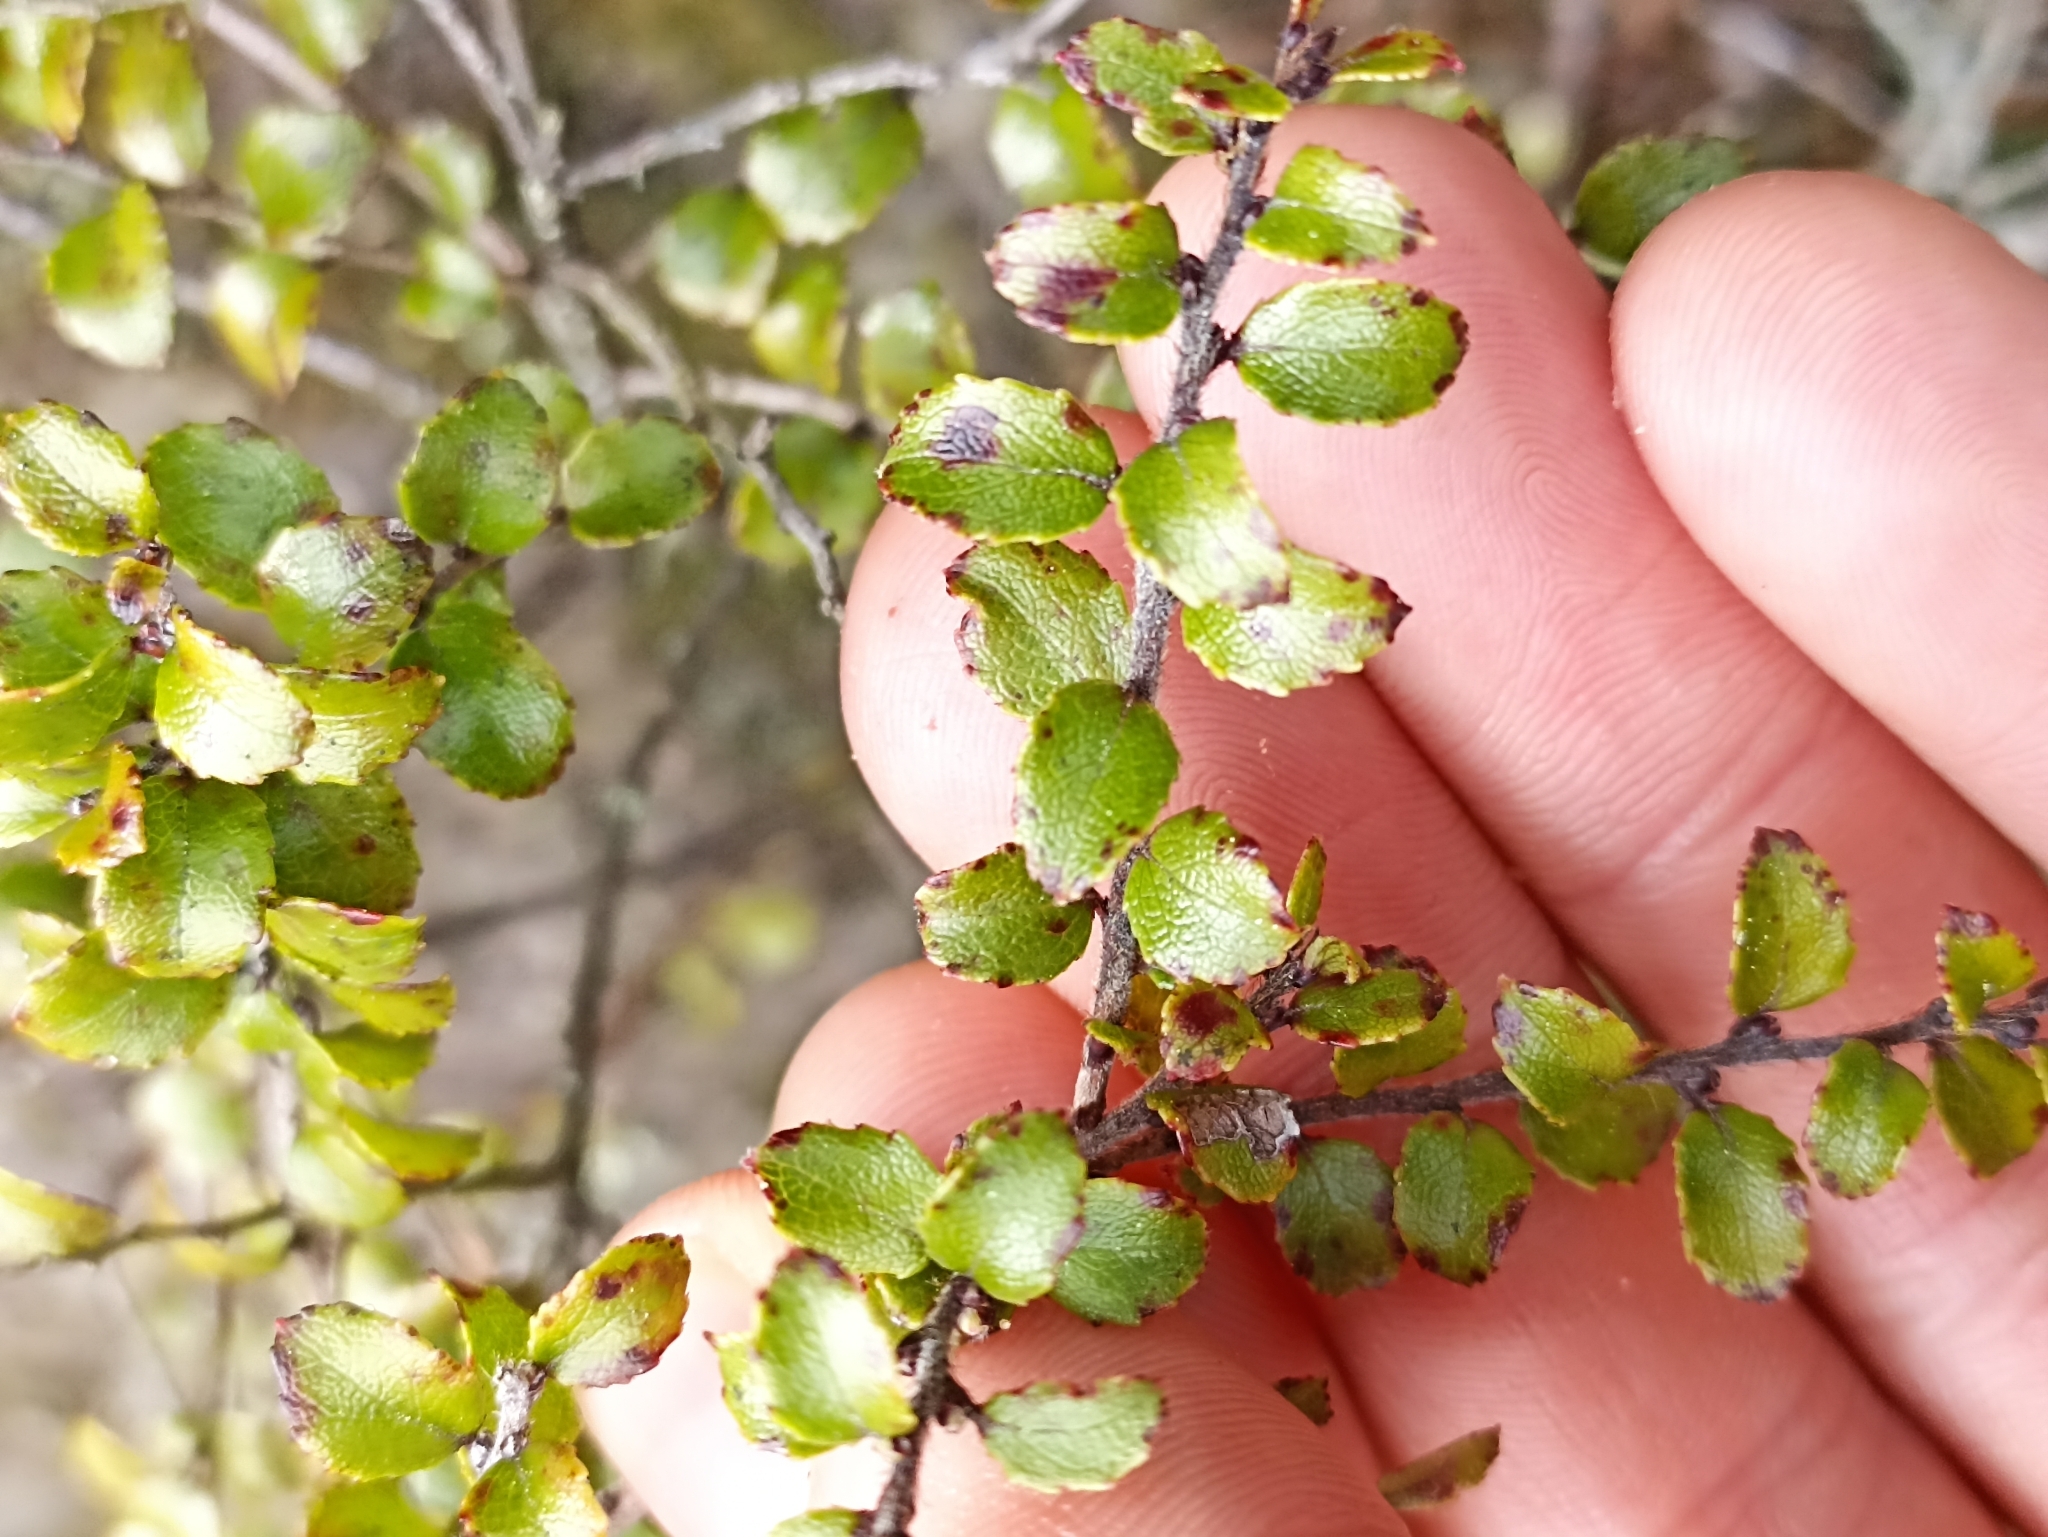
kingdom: Plantae
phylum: Tracheophyta
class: Magnoliopsida
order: Ericales
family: Ericaceae
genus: Gaultheria
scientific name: Gaultheria antipoda
